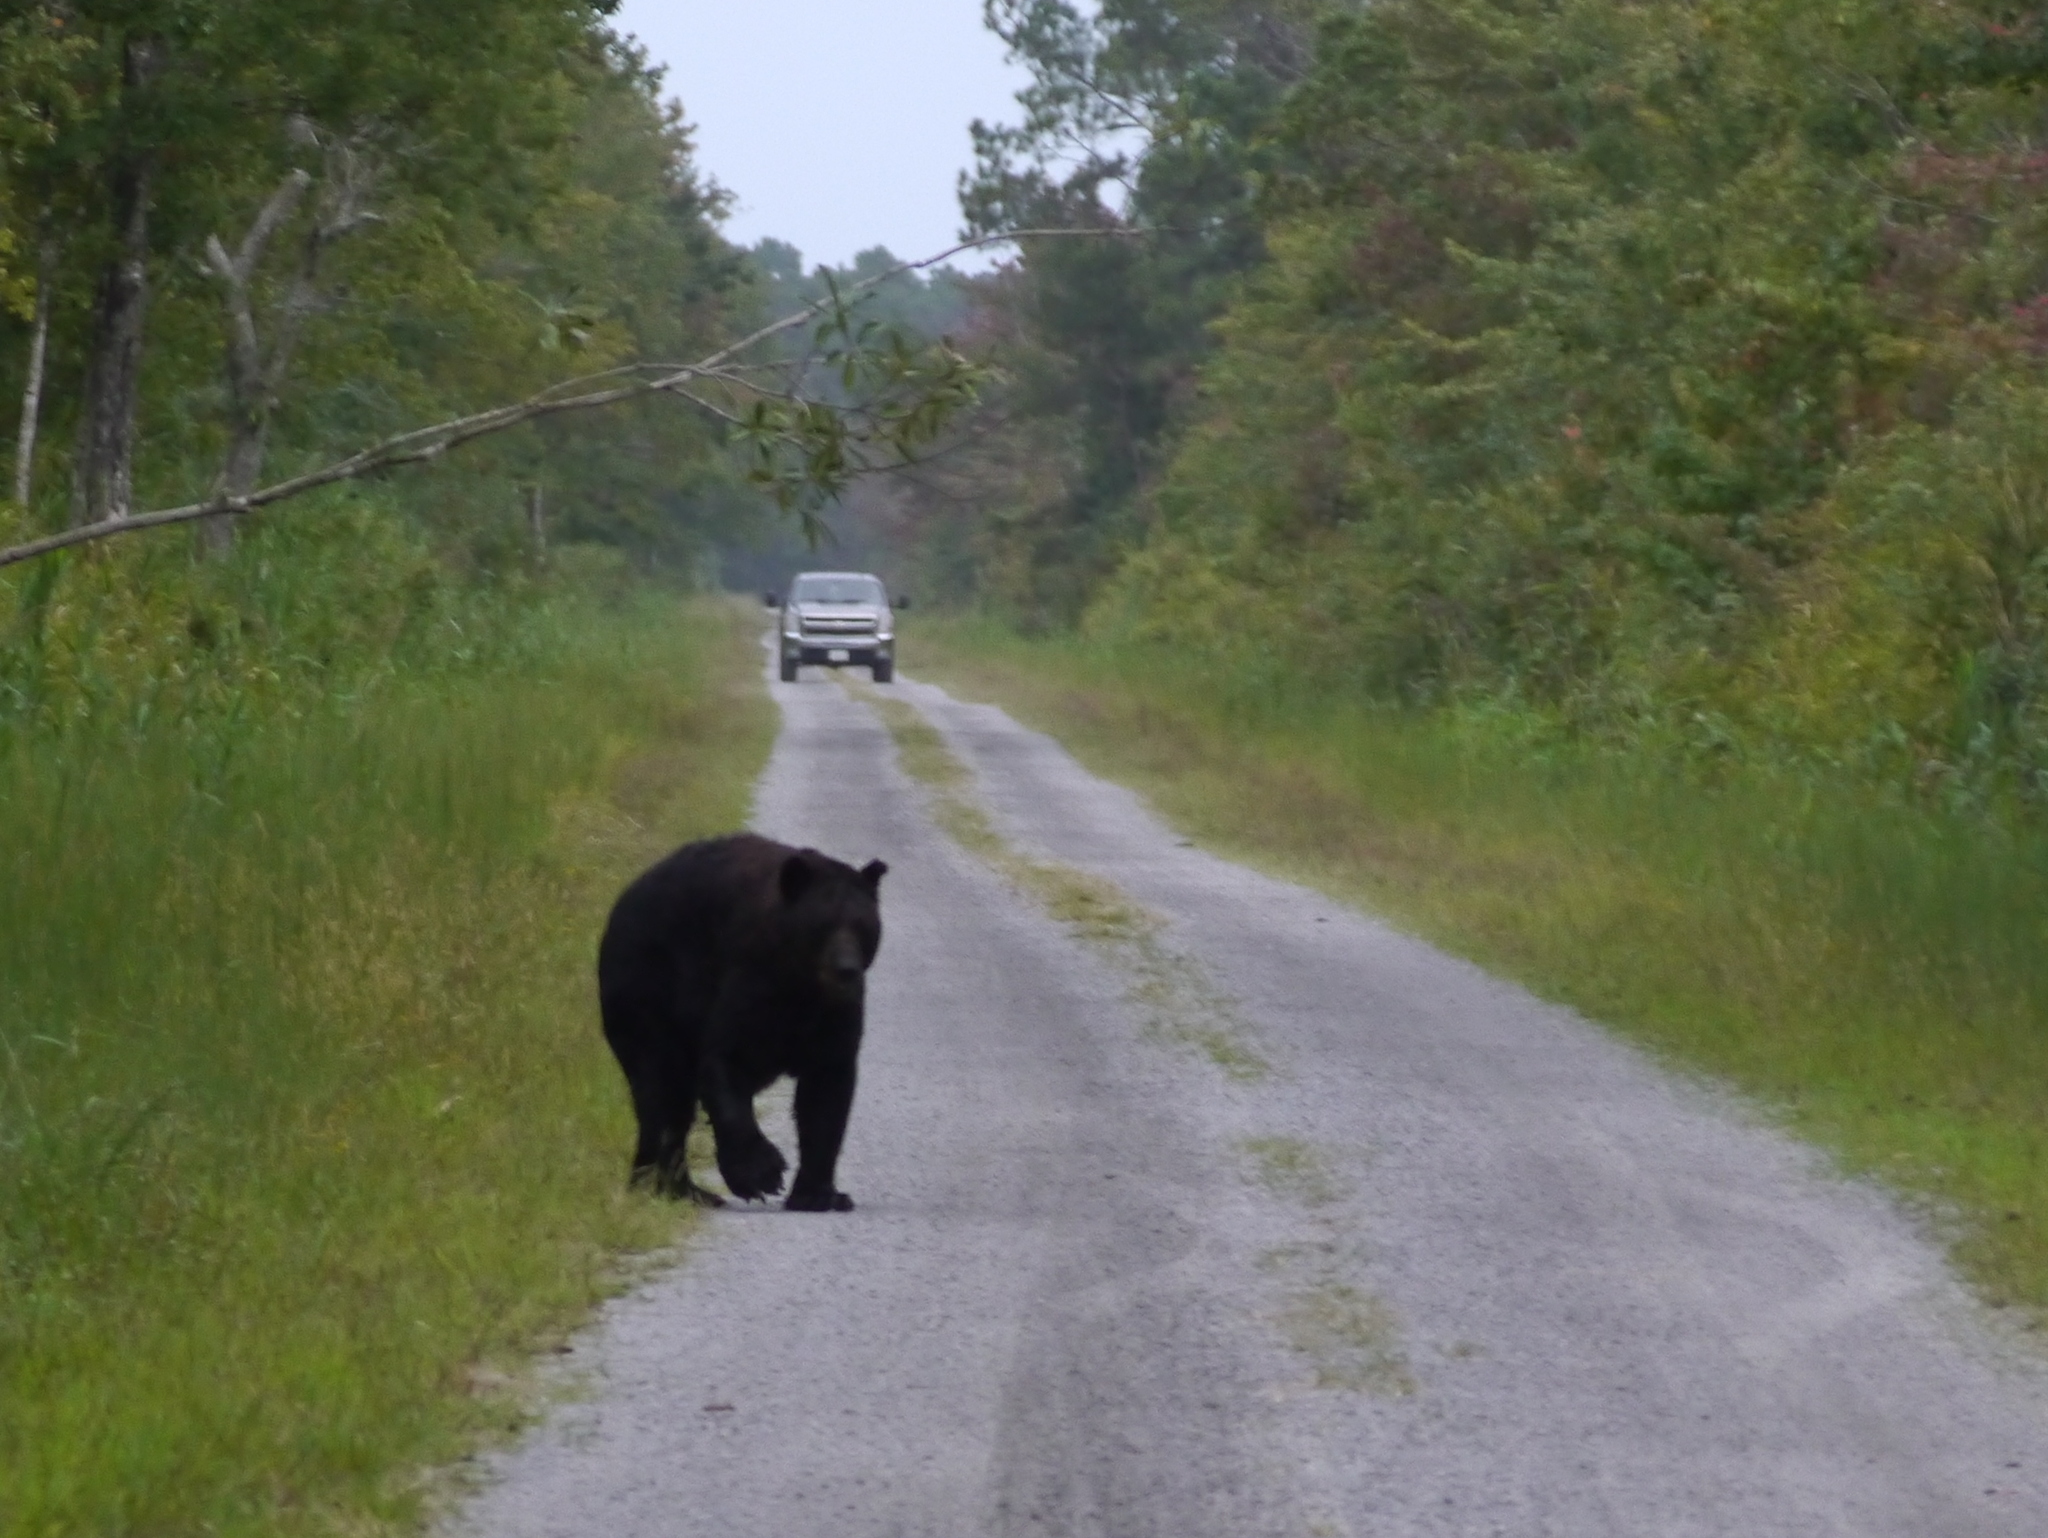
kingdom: Animalia
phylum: Chordata
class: Mammalia
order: Carnivora
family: Ursidae
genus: Ursus
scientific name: Ursus americanus
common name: American black bear
